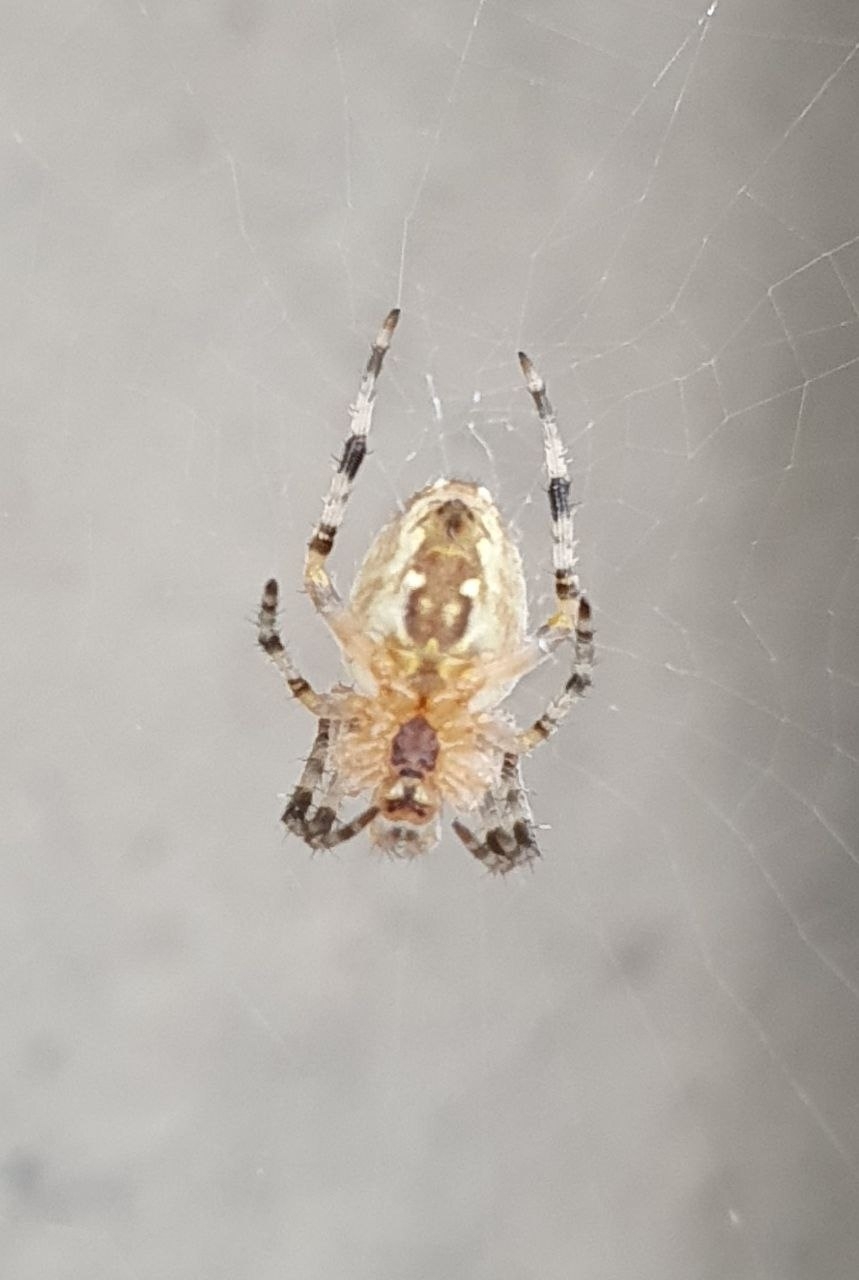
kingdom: Animalia
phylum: Arthropoda
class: Arachnida
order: Araneae
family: Araneidae
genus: Araneus
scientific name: Araneus diadematus
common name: Cross orbweaver
